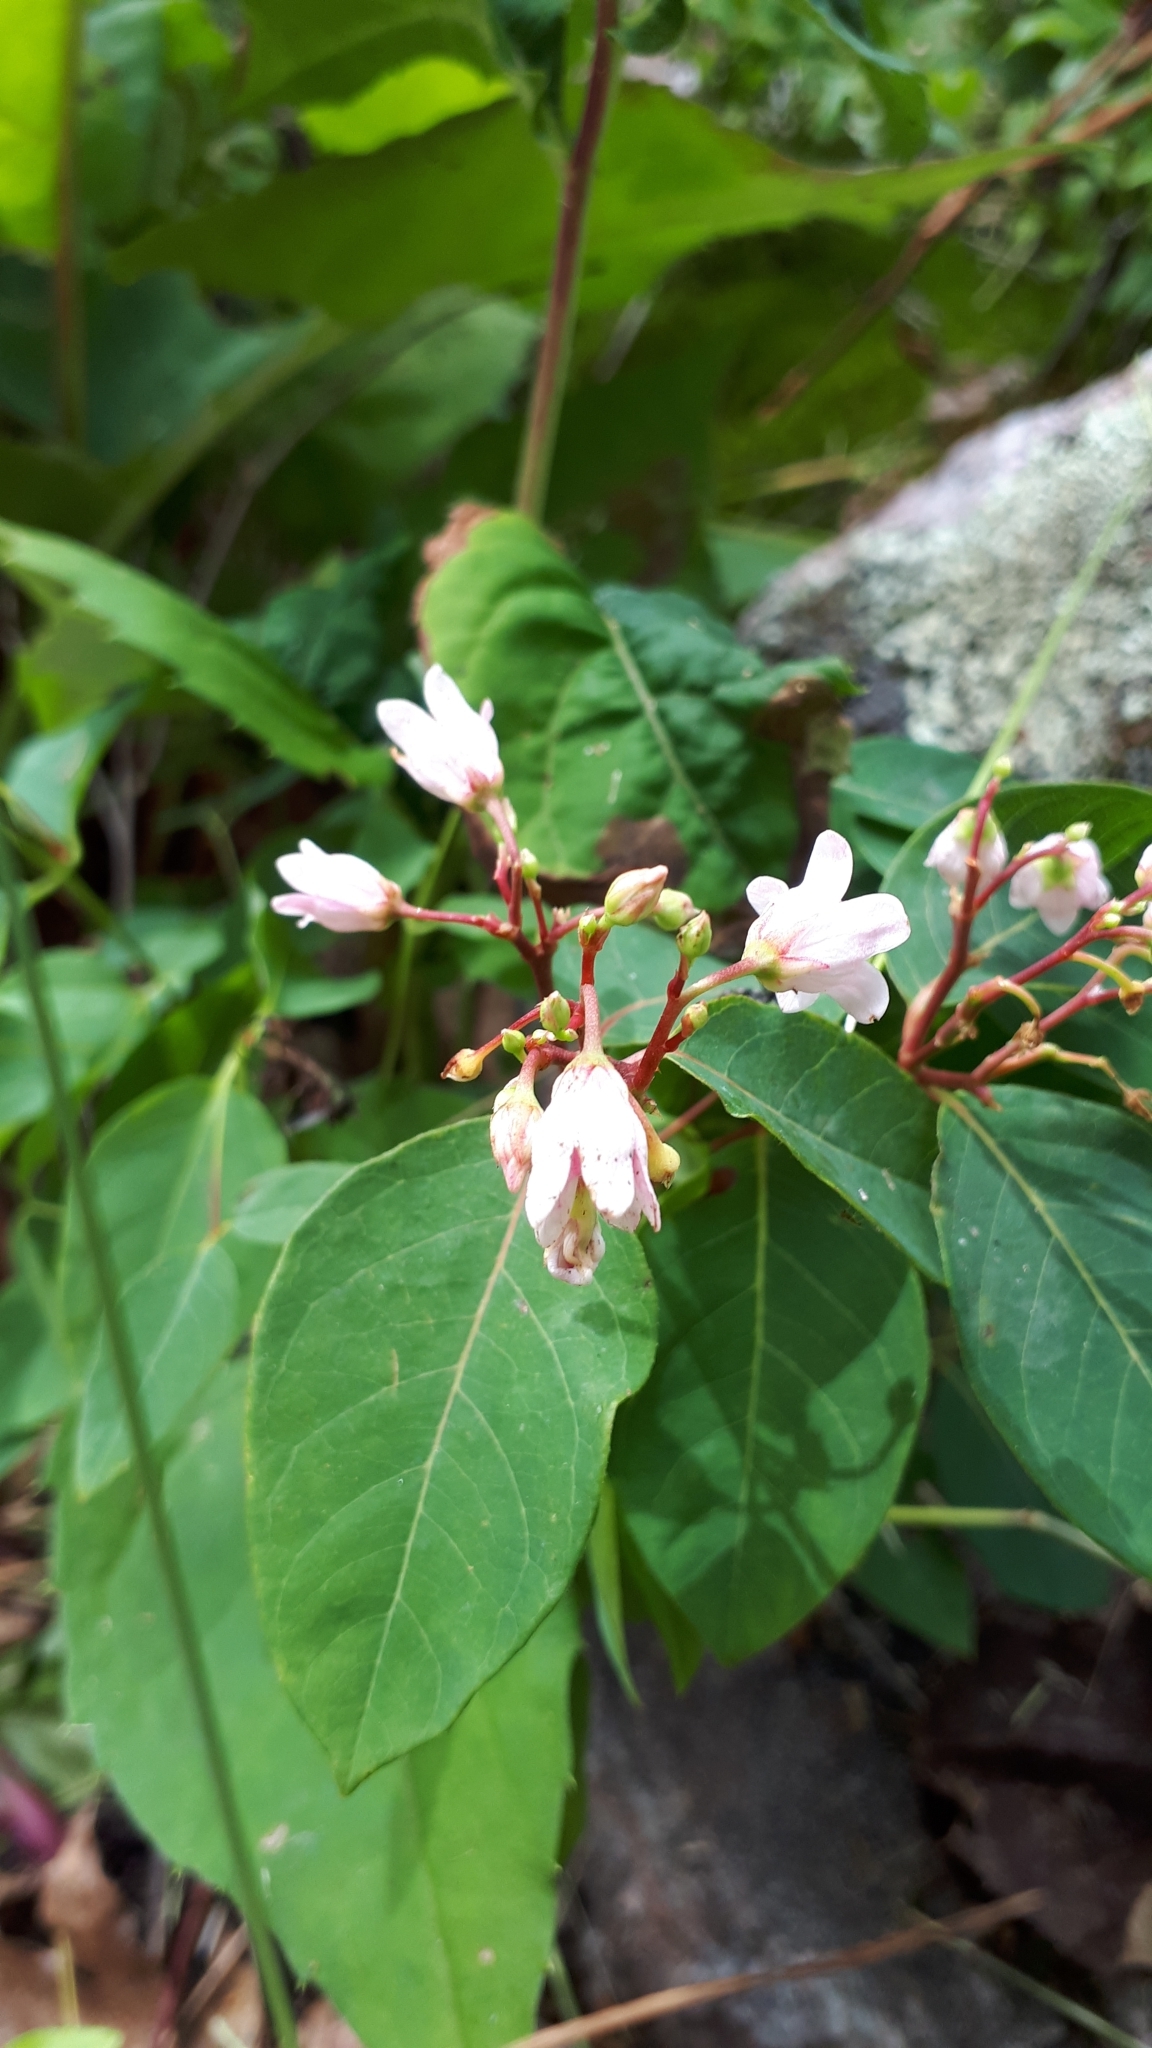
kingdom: Plantae
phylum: Tracheophyta
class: Magnoliopsida
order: Gentianales
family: Apocynaceae
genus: Apocynum
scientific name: Apocynum androsaemifolium
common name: Spreading dogbane
